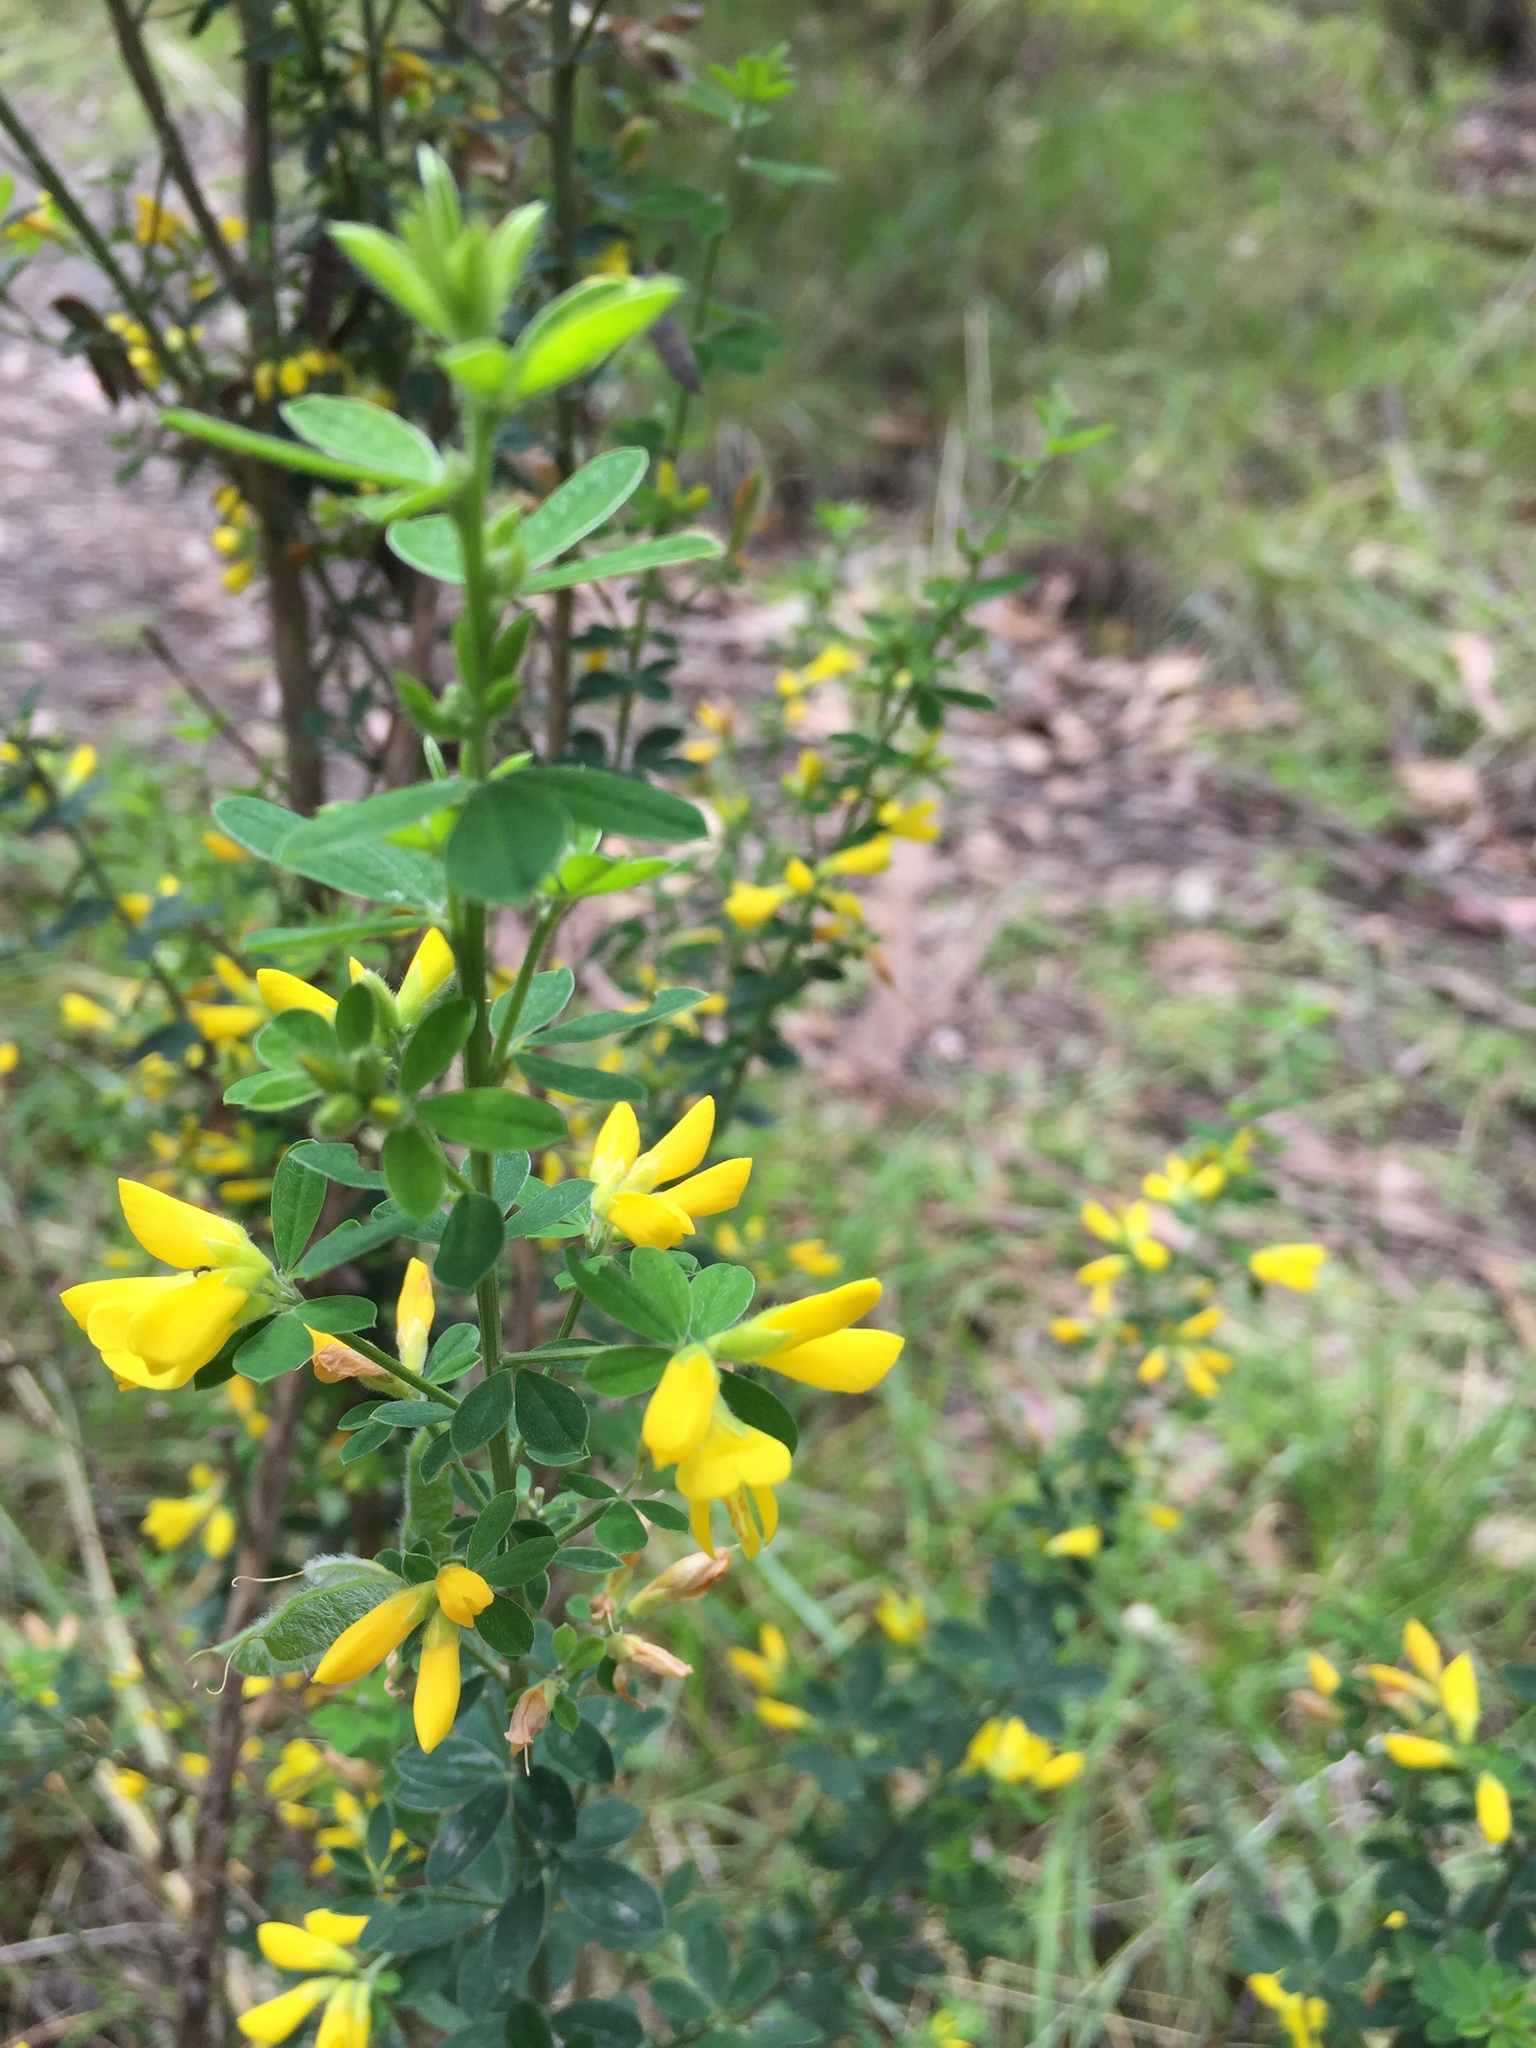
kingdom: Plantae
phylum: Tracheophyta
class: Magnoliopsida
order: Fabales
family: Fabaceae
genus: Genista
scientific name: Genista monspessulana
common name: Montpellier broom
